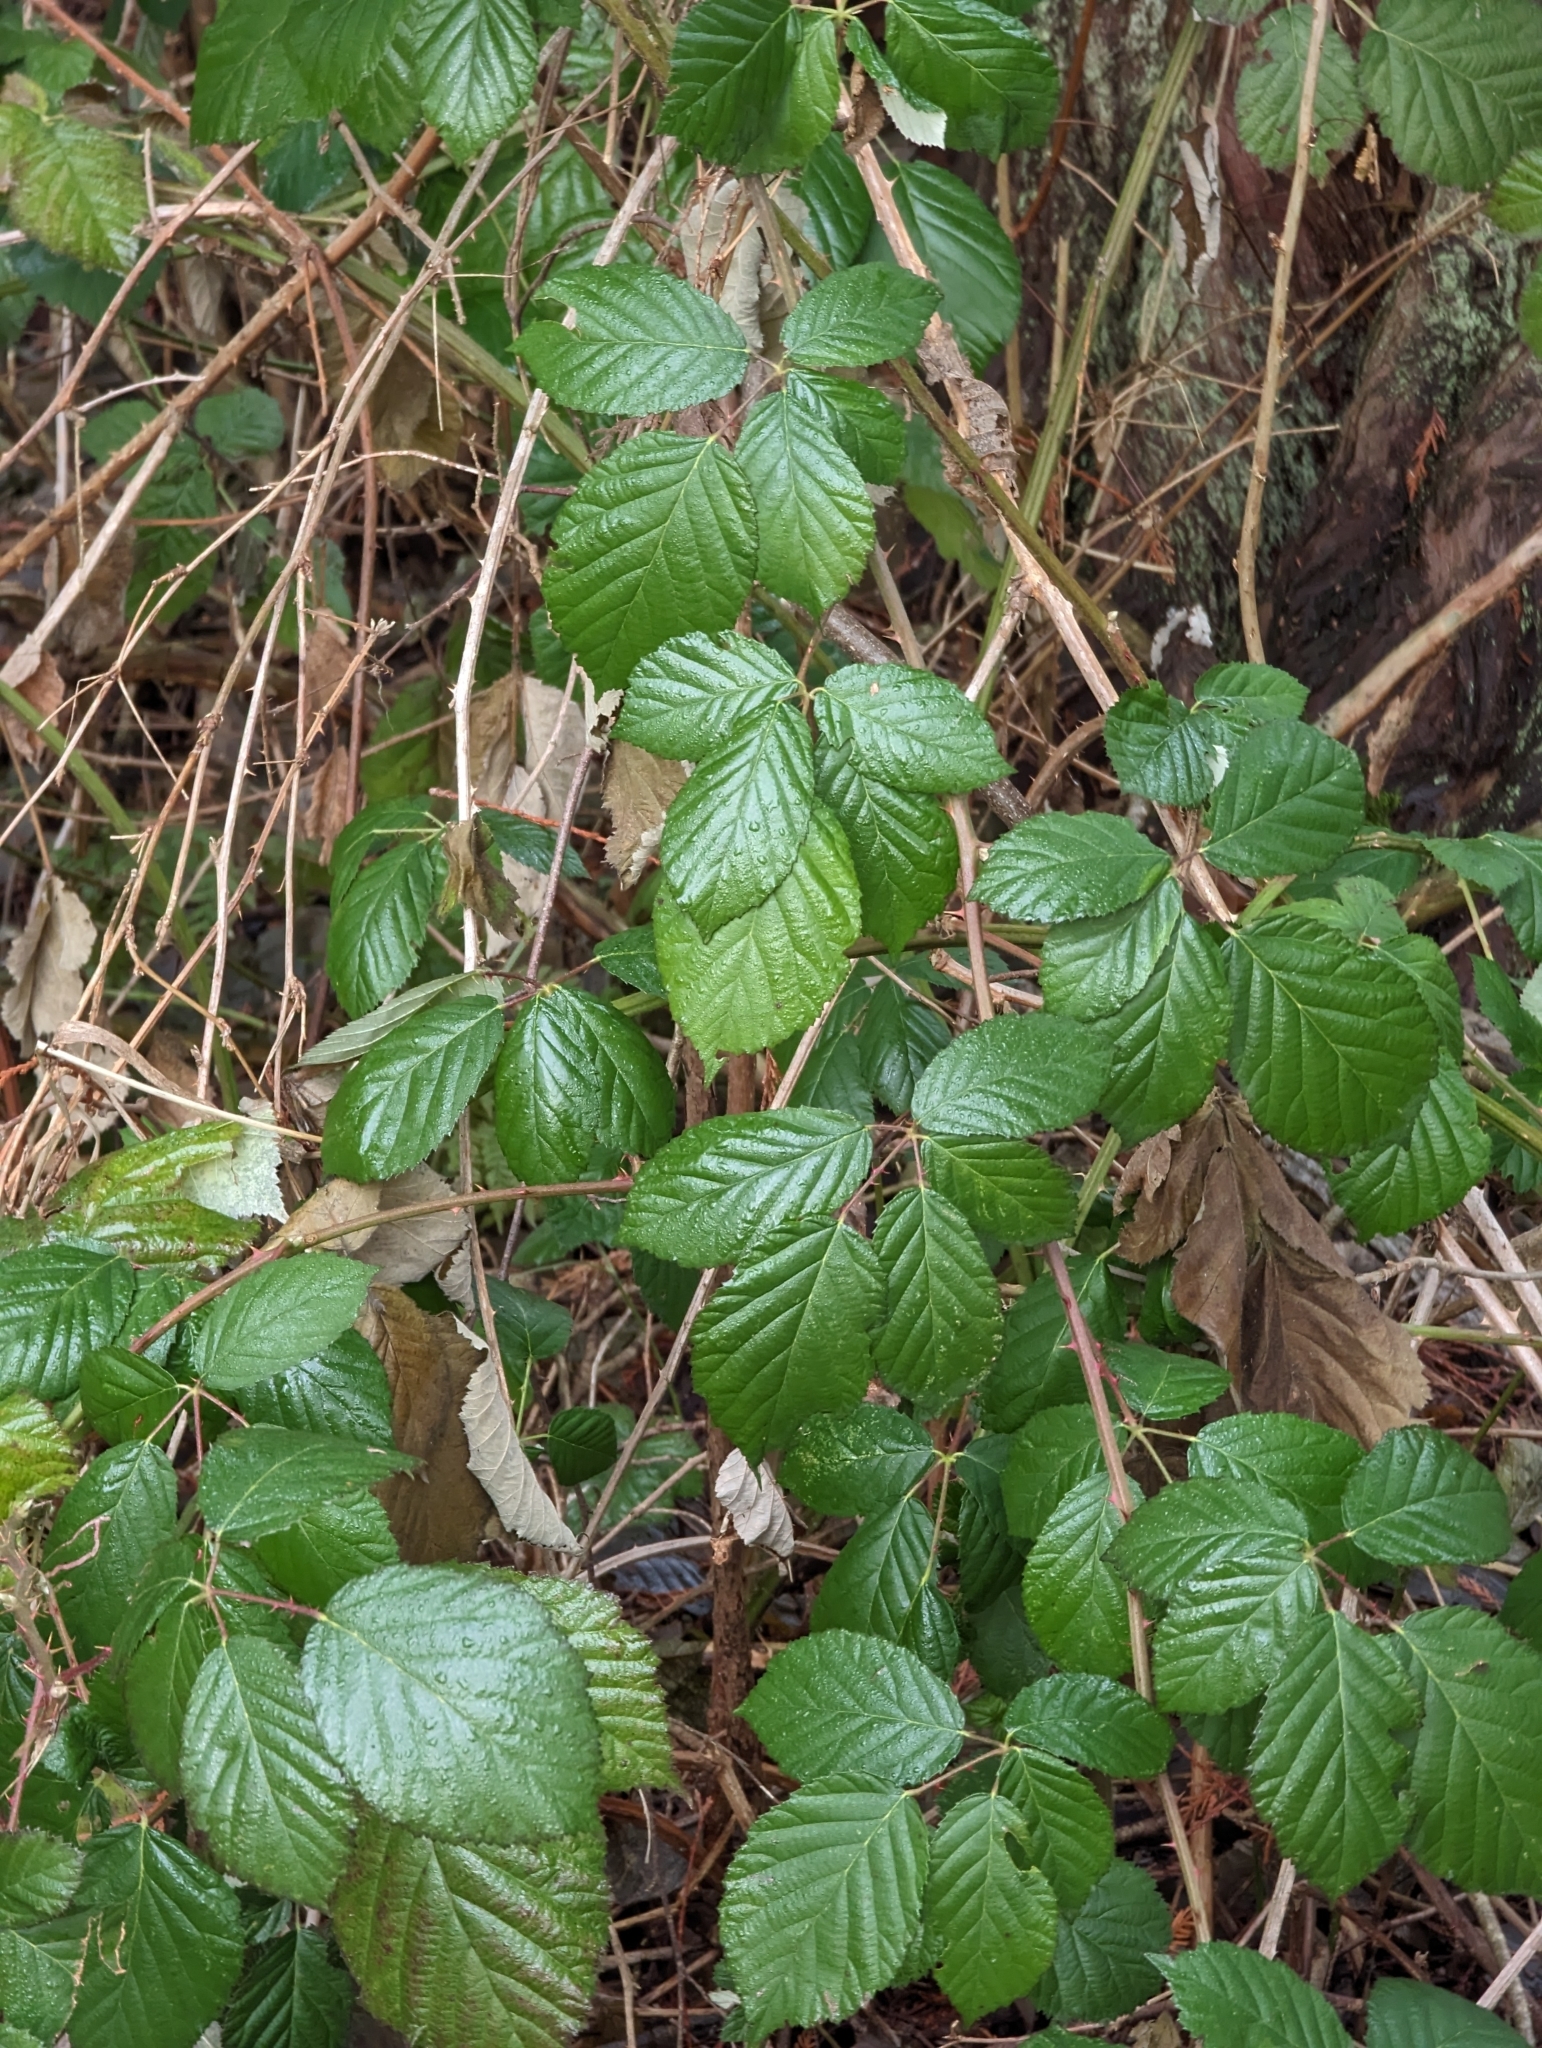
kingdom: Plantae
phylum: Tracheophyta
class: Magnoliopsida
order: Rosales
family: Rosaceae
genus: Rubus
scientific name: Rubus bifrons
